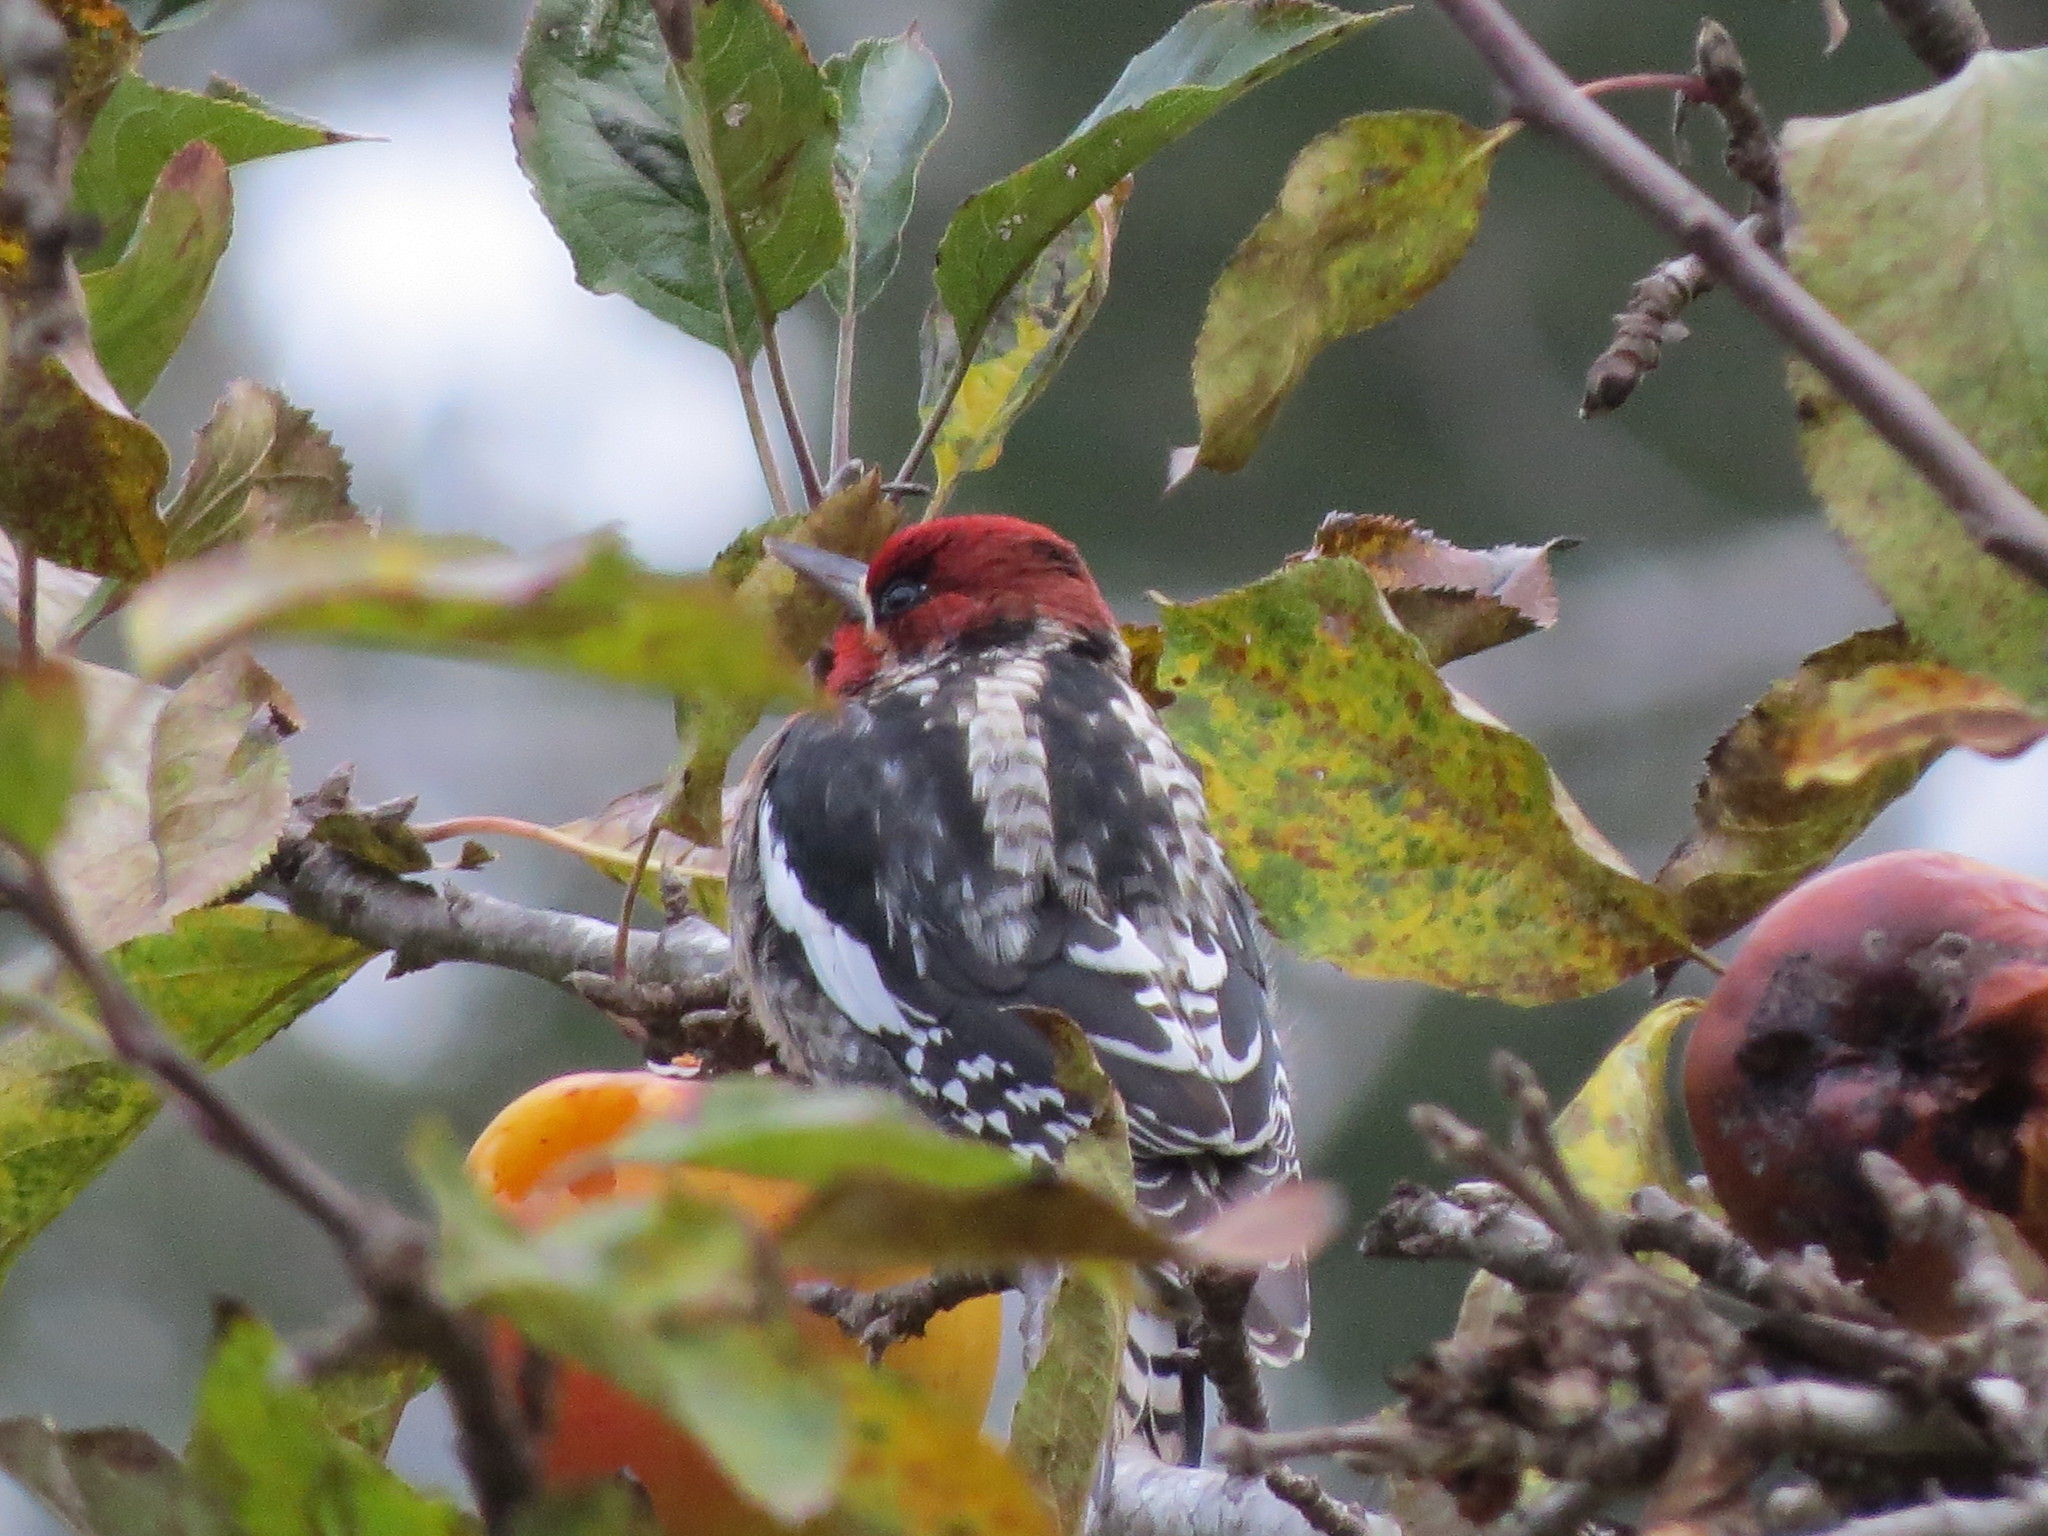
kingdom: Animalia
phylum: Chordata
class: Aves
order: Piciformes
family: Picidae
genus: Sphyrapicus
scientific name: Sphyrapicus ruber
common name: Red-breasted sapsucker
